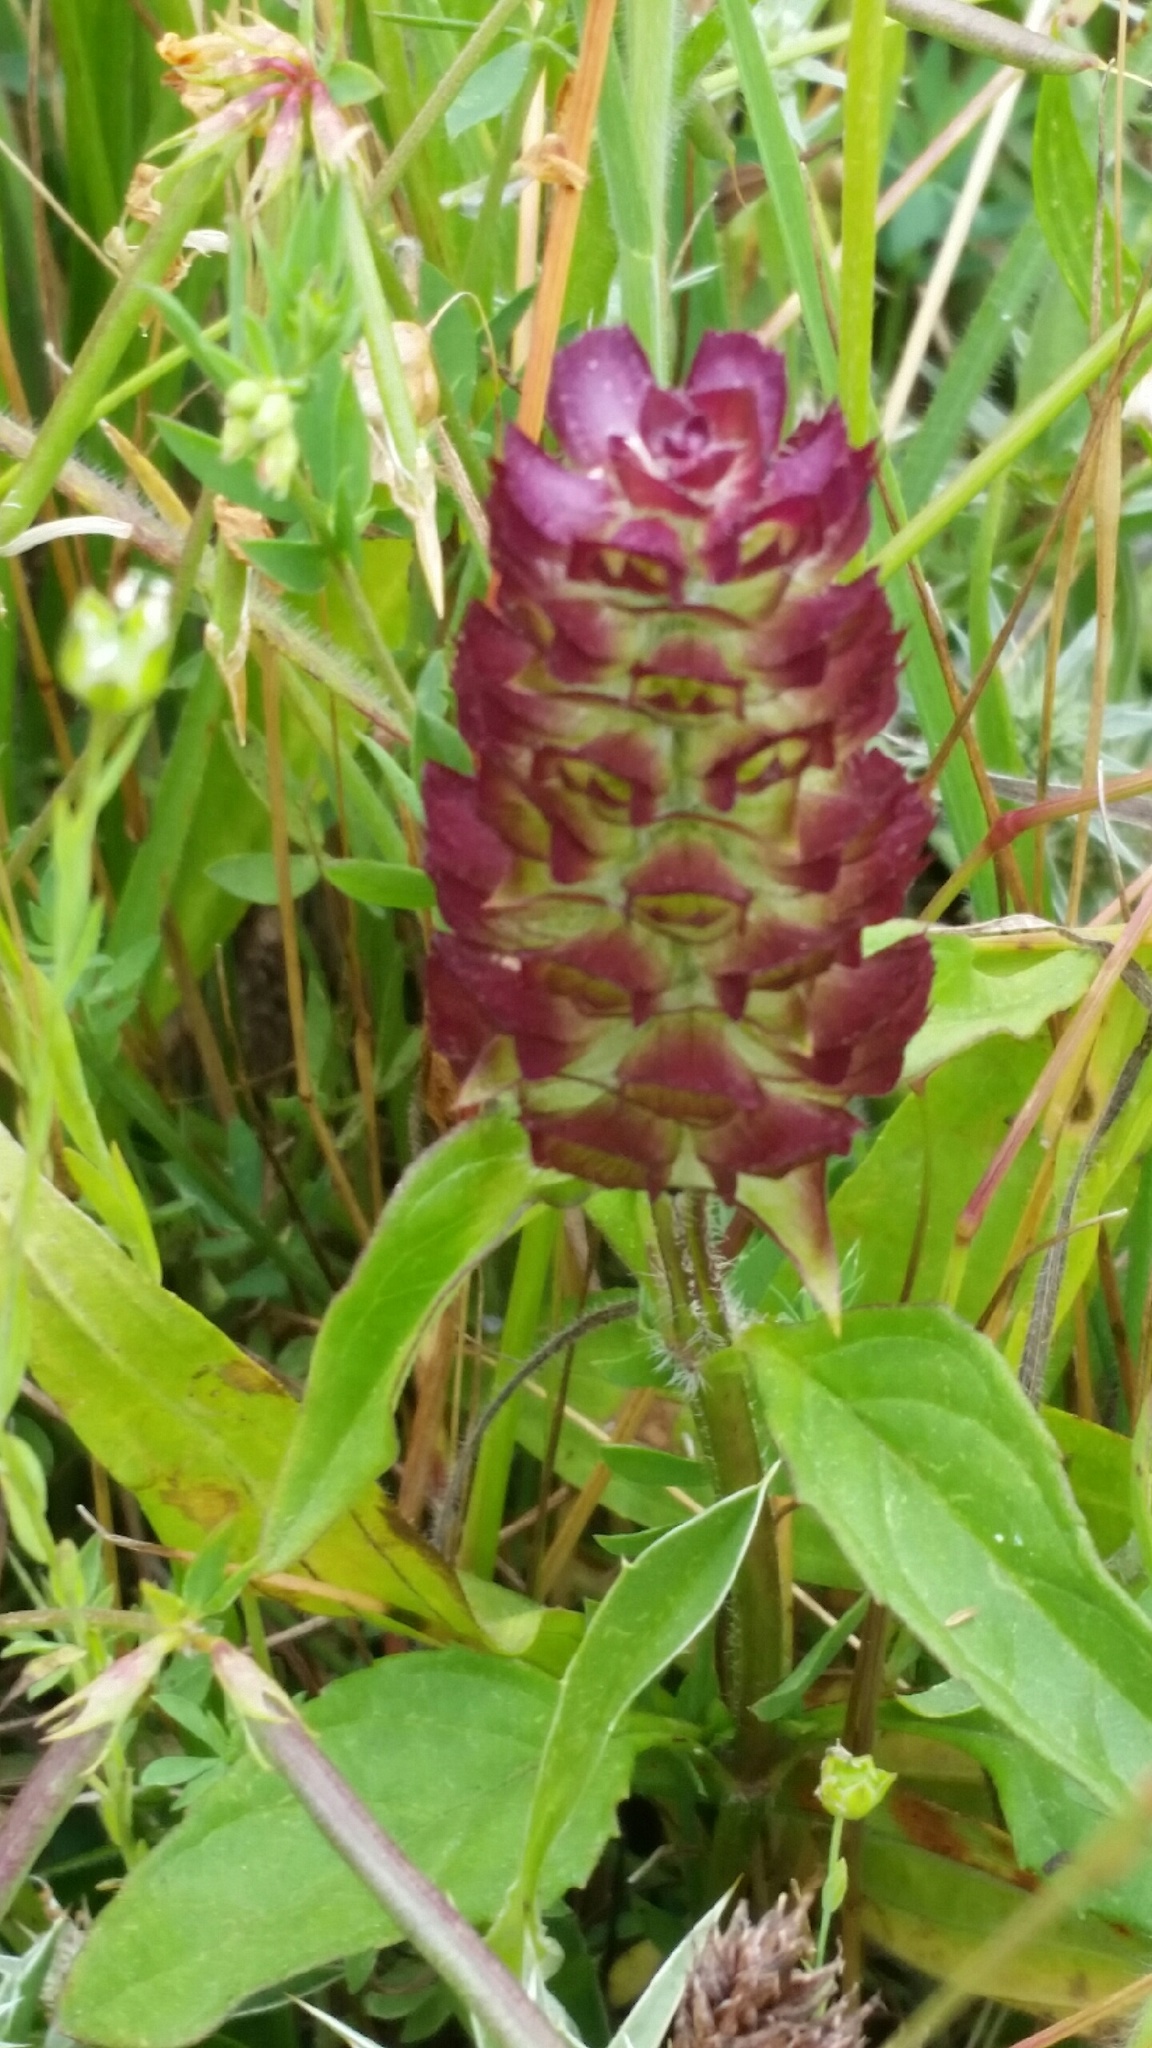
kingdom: Plantae
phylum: Tracheophyta
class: Magnoliopsida
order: Lamiales
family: Lamiaceae
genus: Prunella
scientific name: Prunella vulgaris
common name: Heal-all
